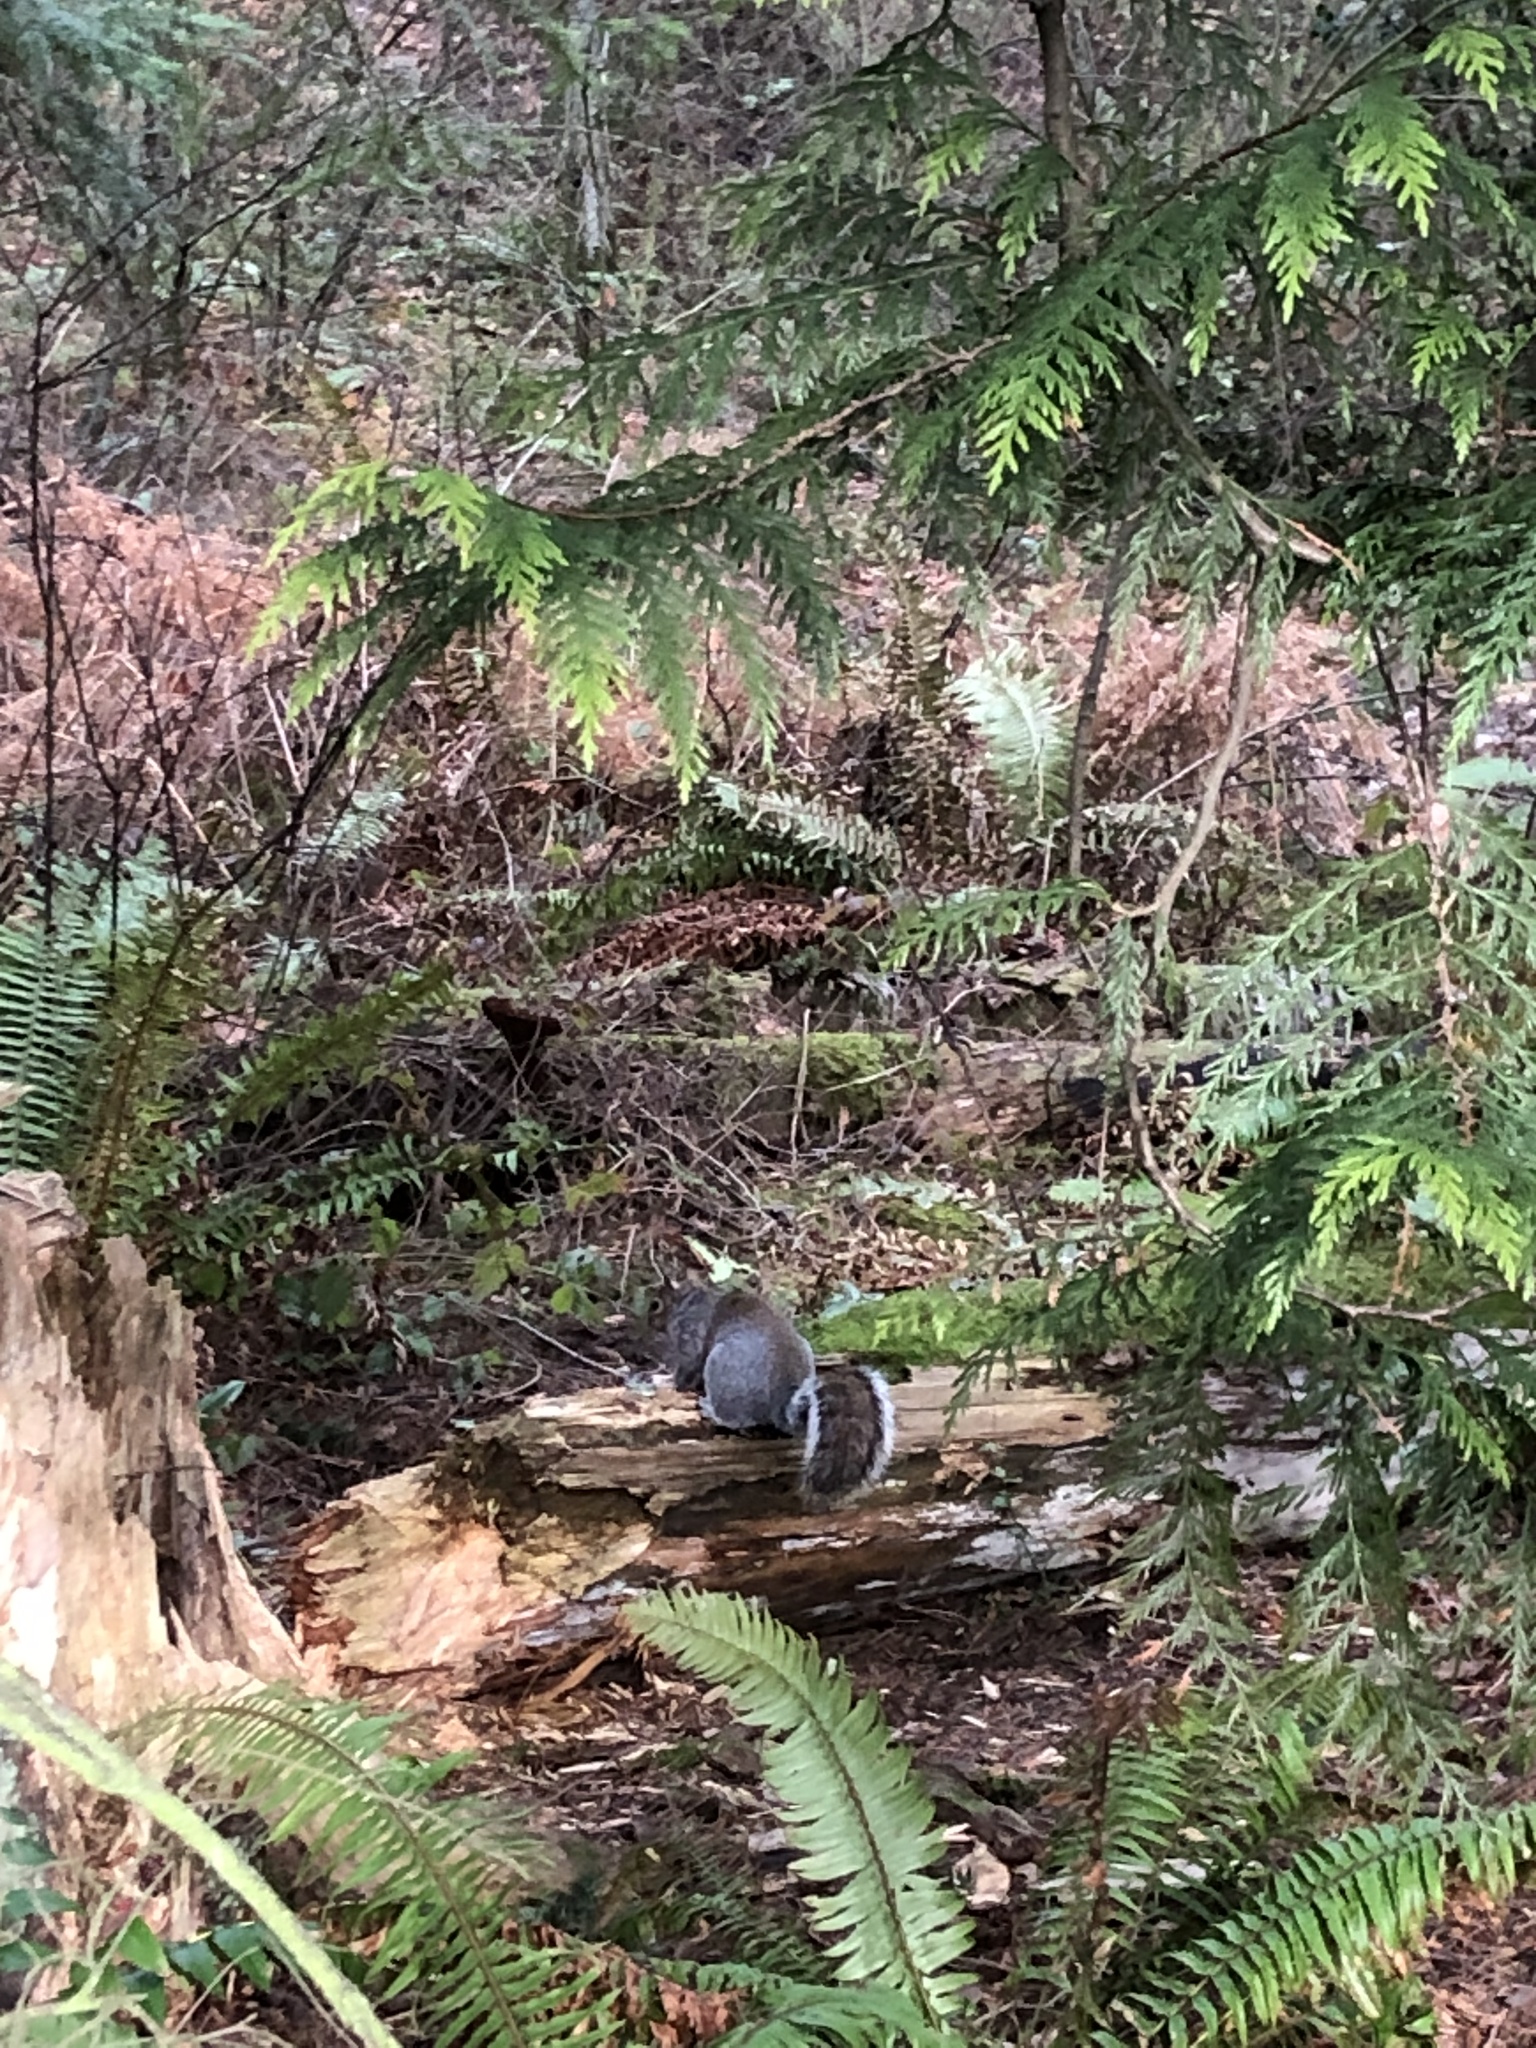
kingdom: Animalia
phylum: Chordata
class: Mammalia
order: Rodentia
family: Sciuridae
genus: Sciurus
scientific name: Sciurus carolinensis
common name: Eastern gray squirrel
